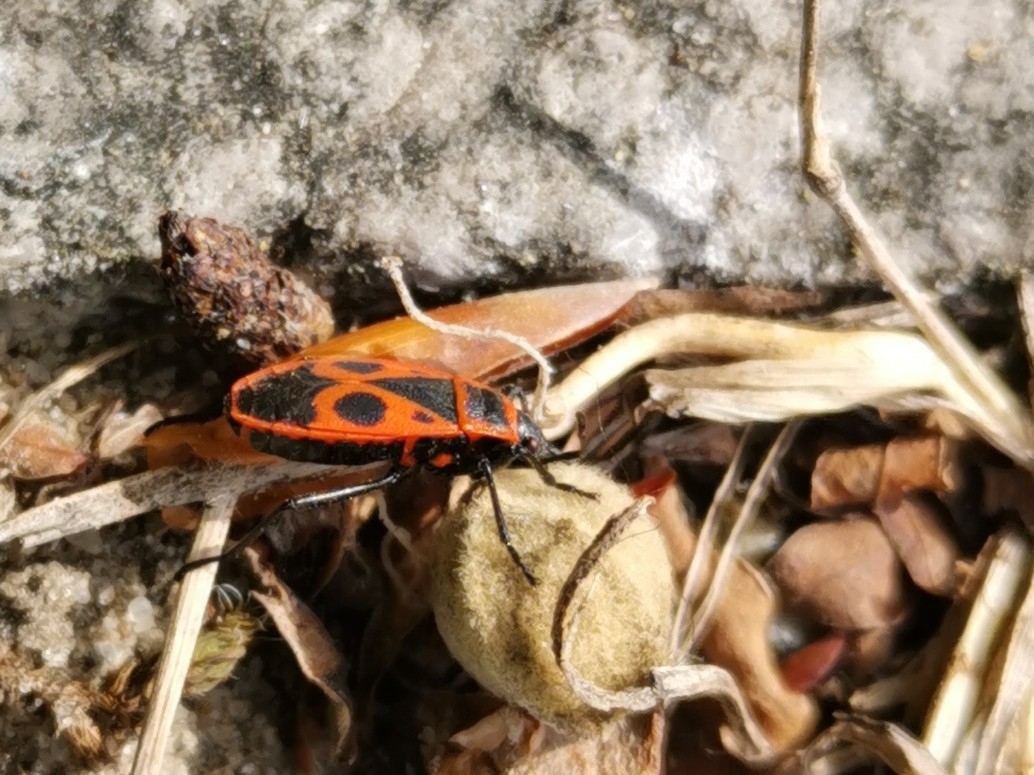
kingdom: Animalia
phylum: Arthropoda
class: Insecta
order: Hemiptera
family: Pyrrhocoridae
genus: Pyrrhocoris
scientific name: Pyrrhocoris apterus
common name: Firebug
